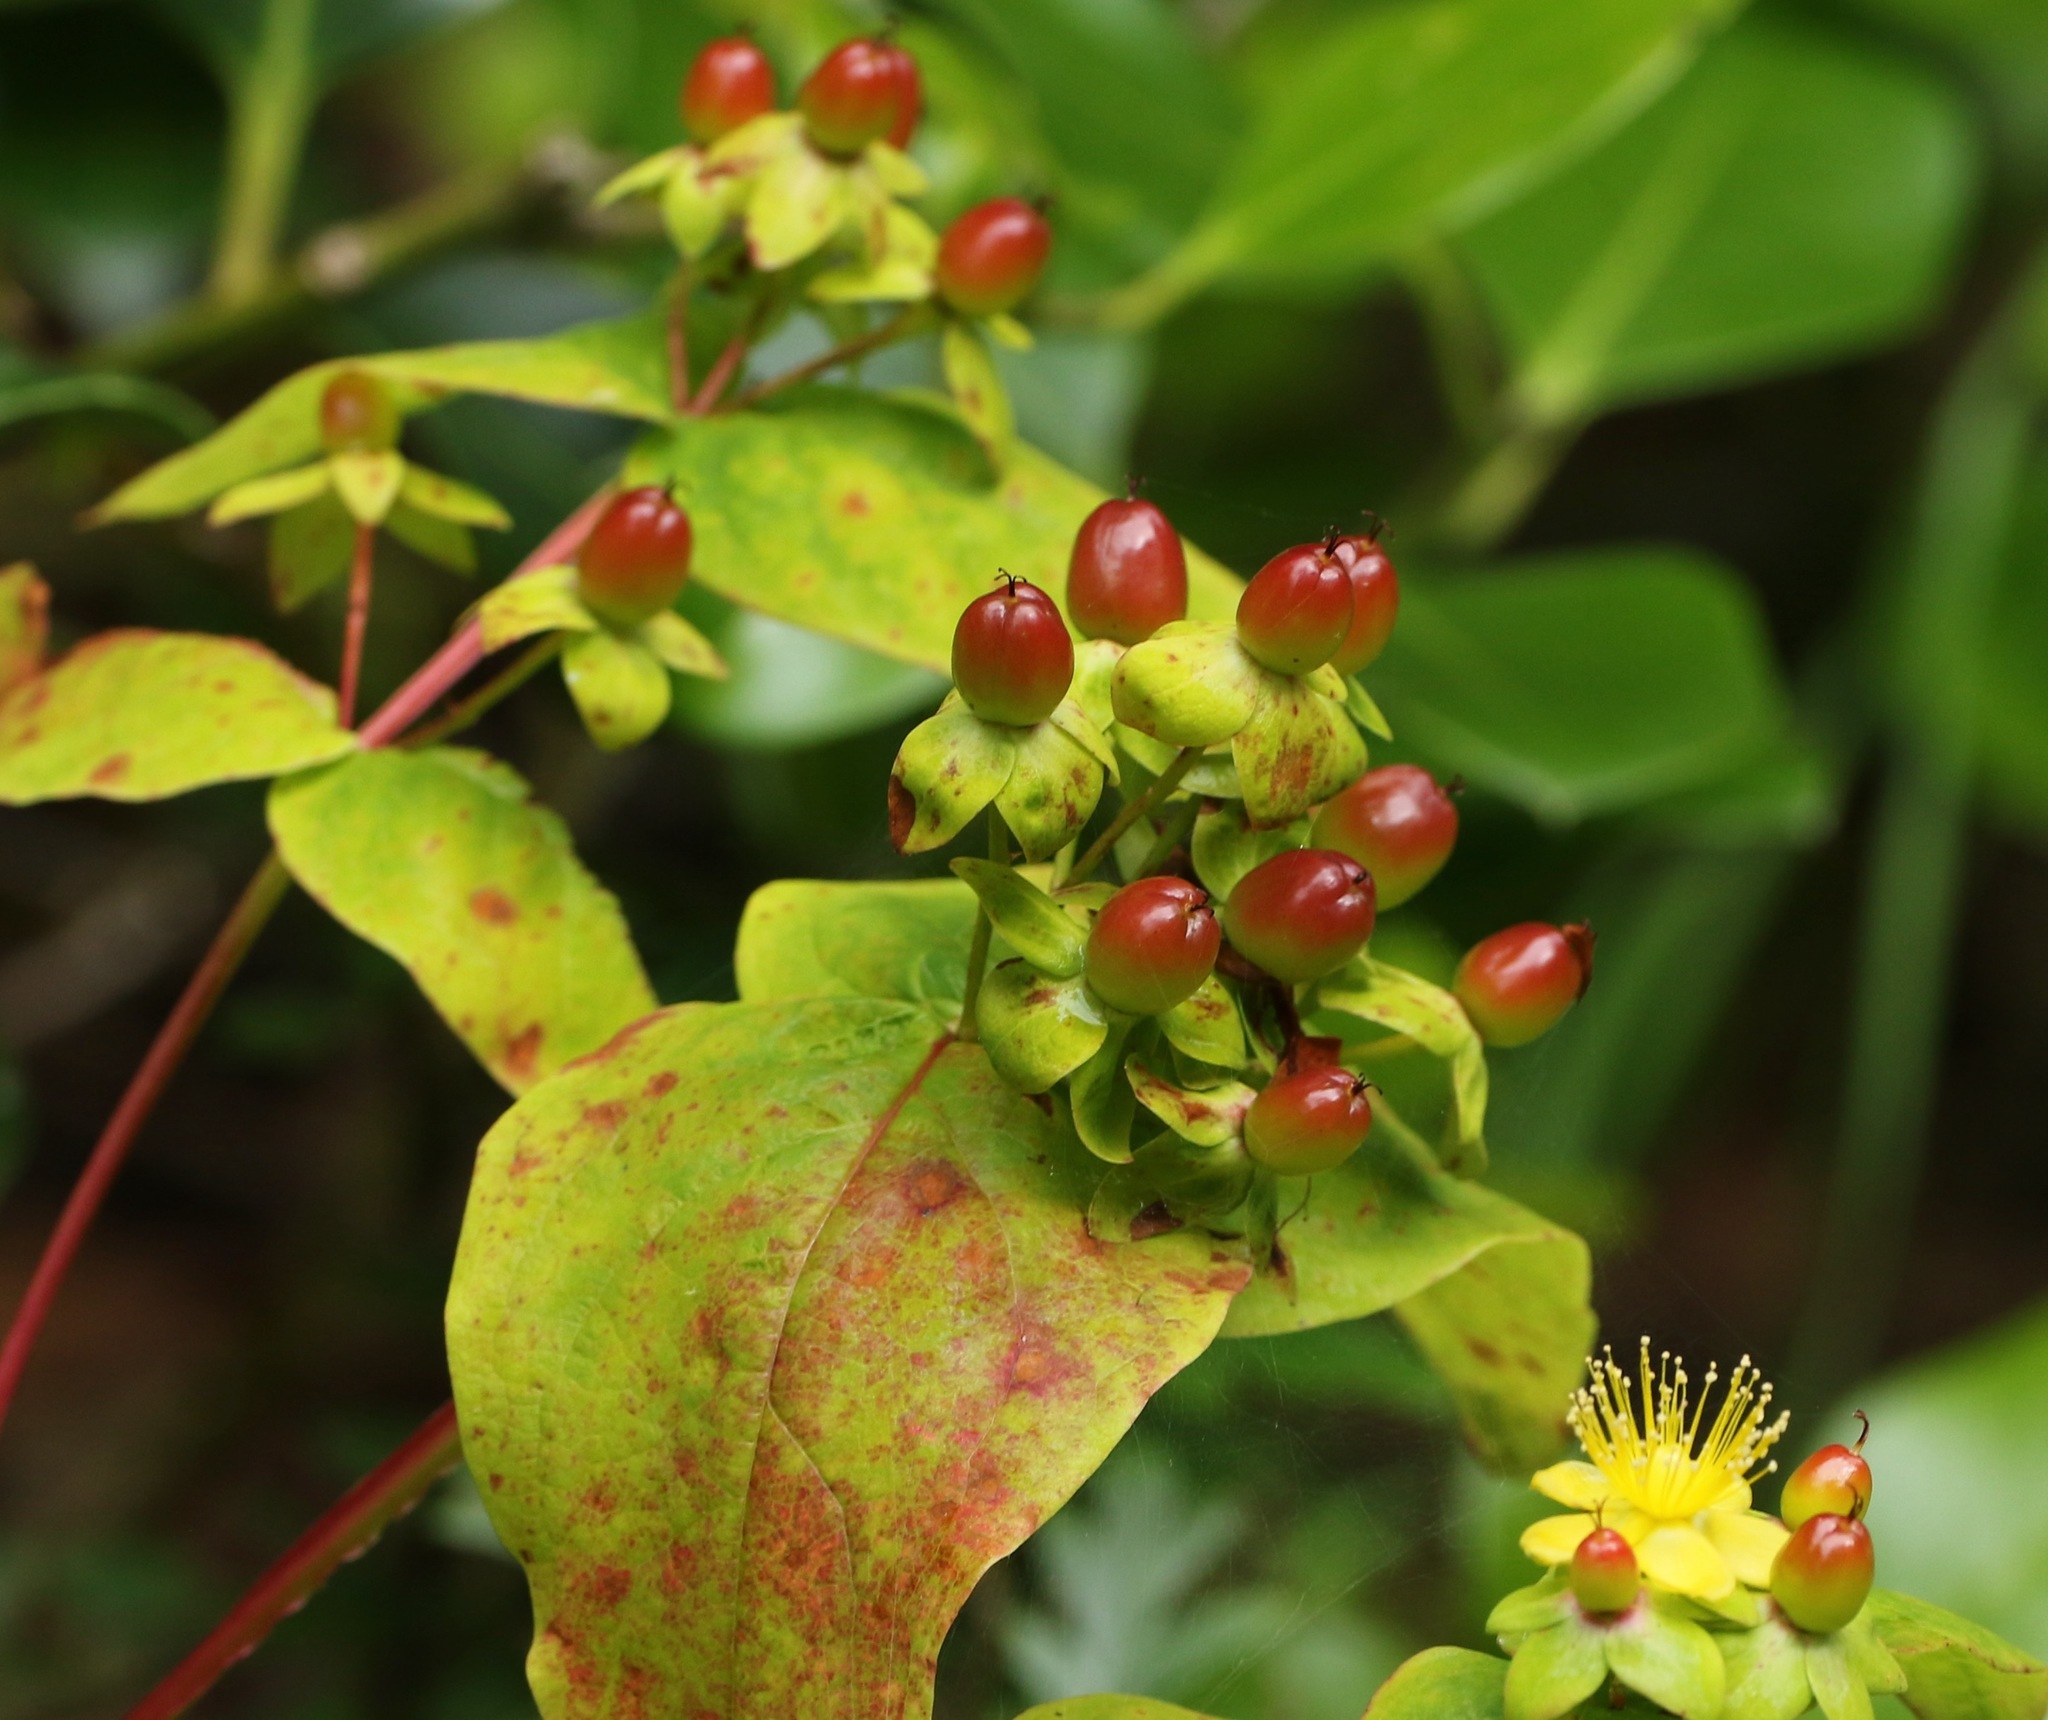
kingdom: Plantae
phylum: Tracheophyta
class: Magnoliopsida
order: Malpighiales
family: Hypericaceae
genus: Hypericum
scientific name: Hypericum androsaemum
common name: Sweet-amber
